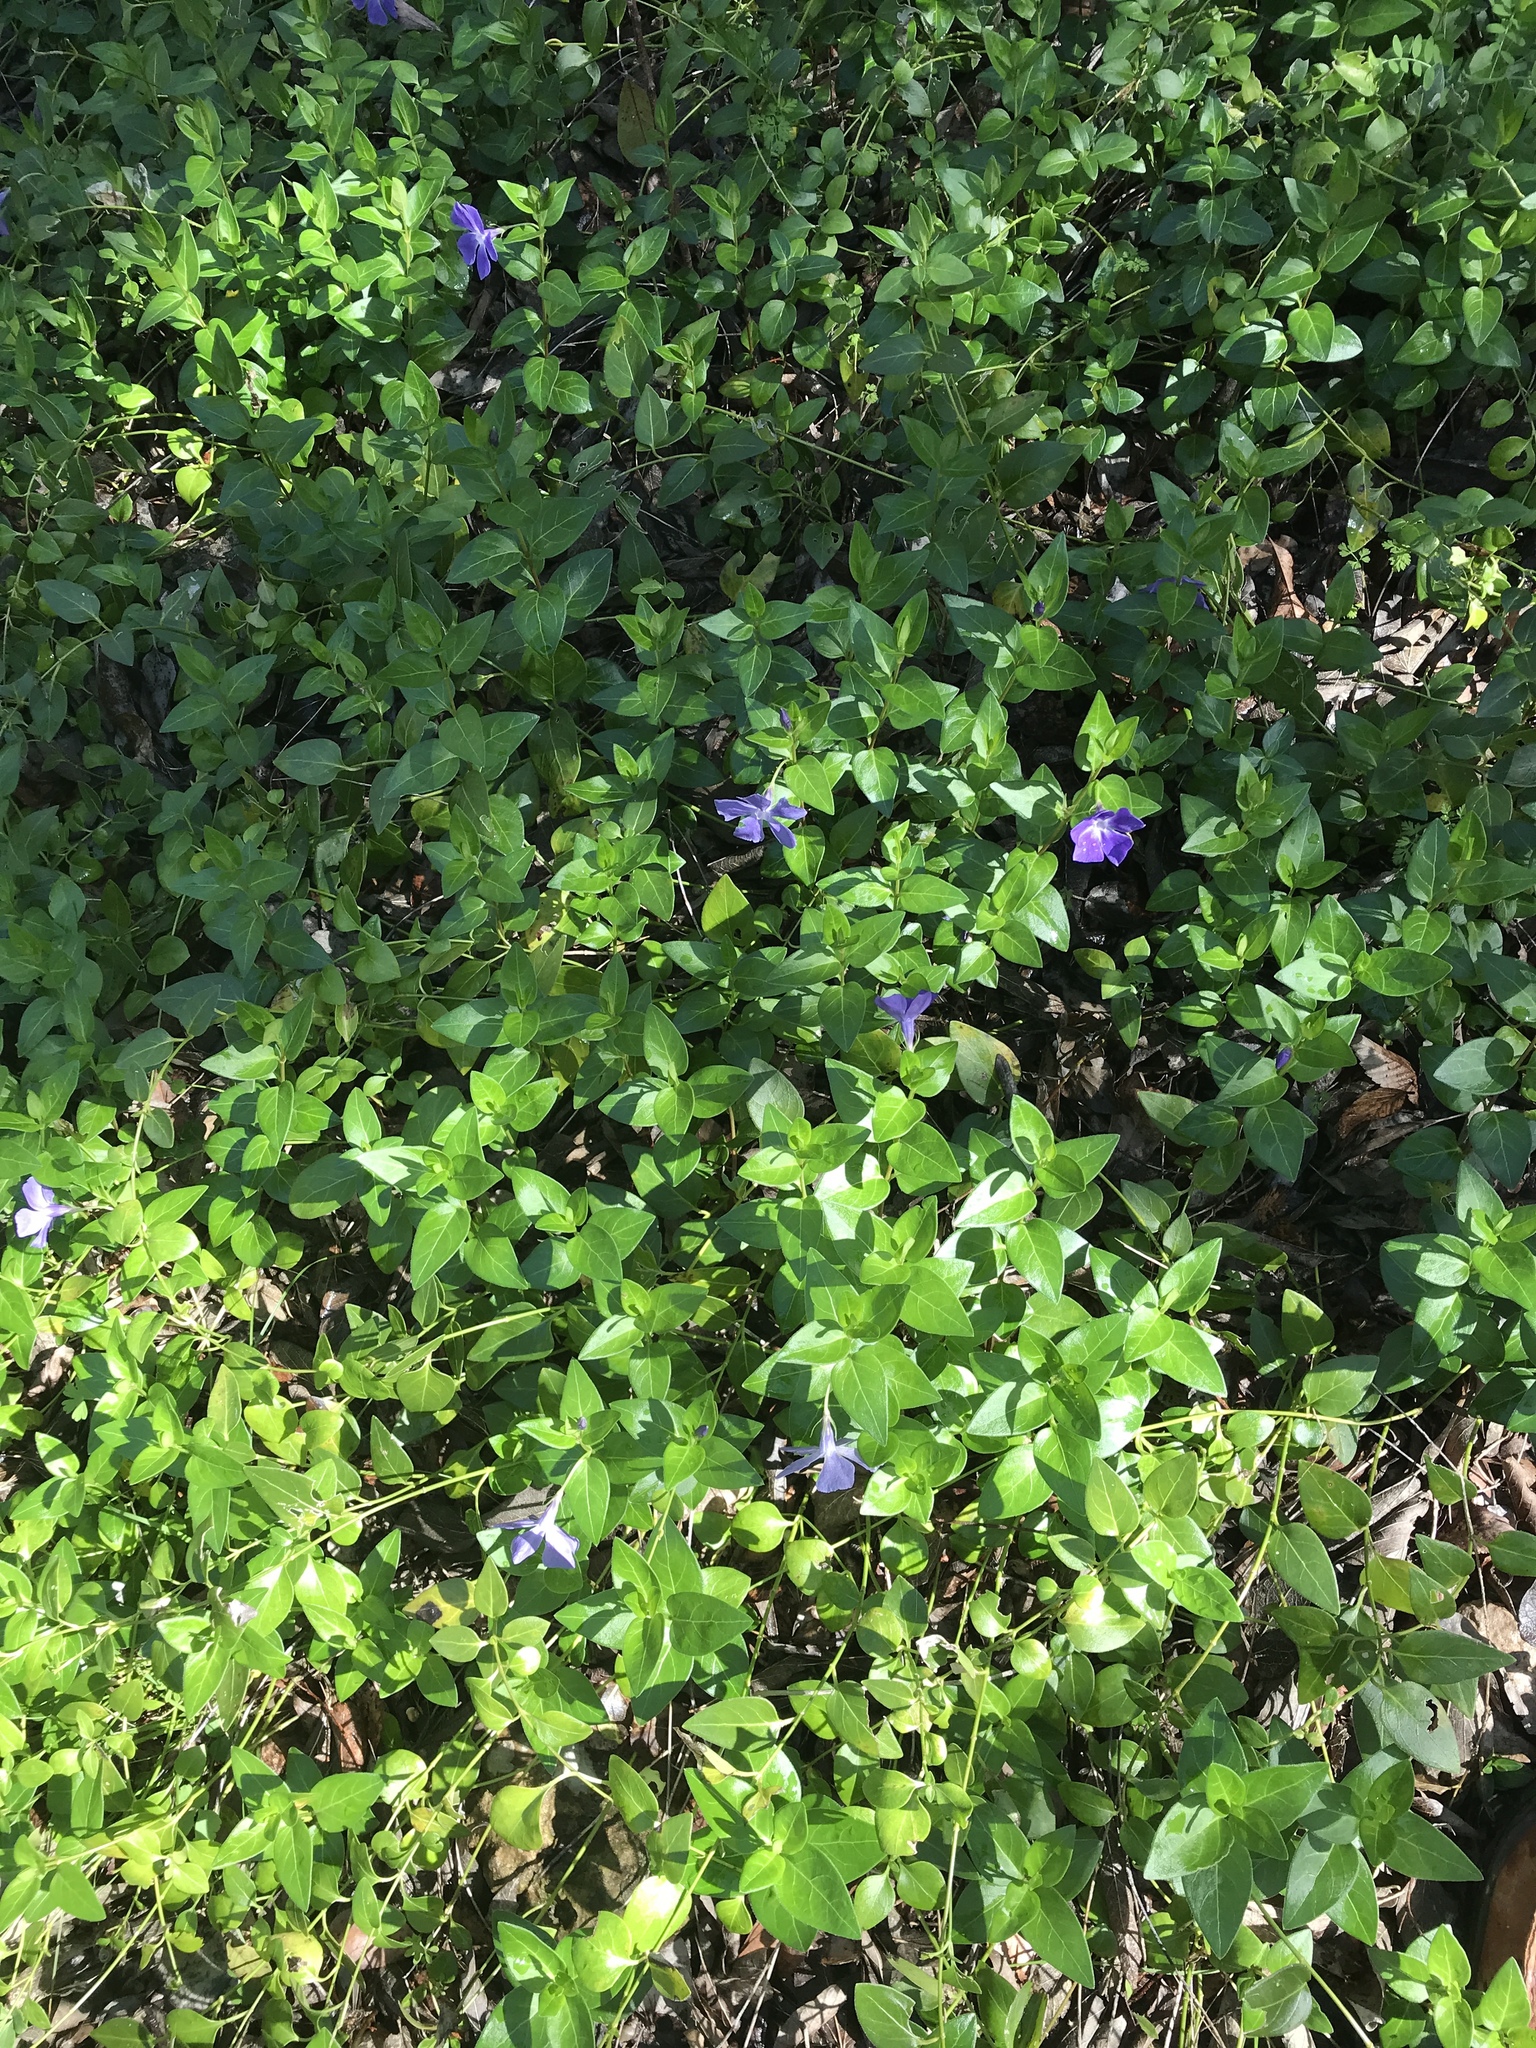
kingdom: Plantae
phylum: Tracheophyta
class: Magnoliopsida
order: Gentianales
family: Apocynaceae
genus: Vinca
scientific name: Vinca major
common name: Greater periwinkle
